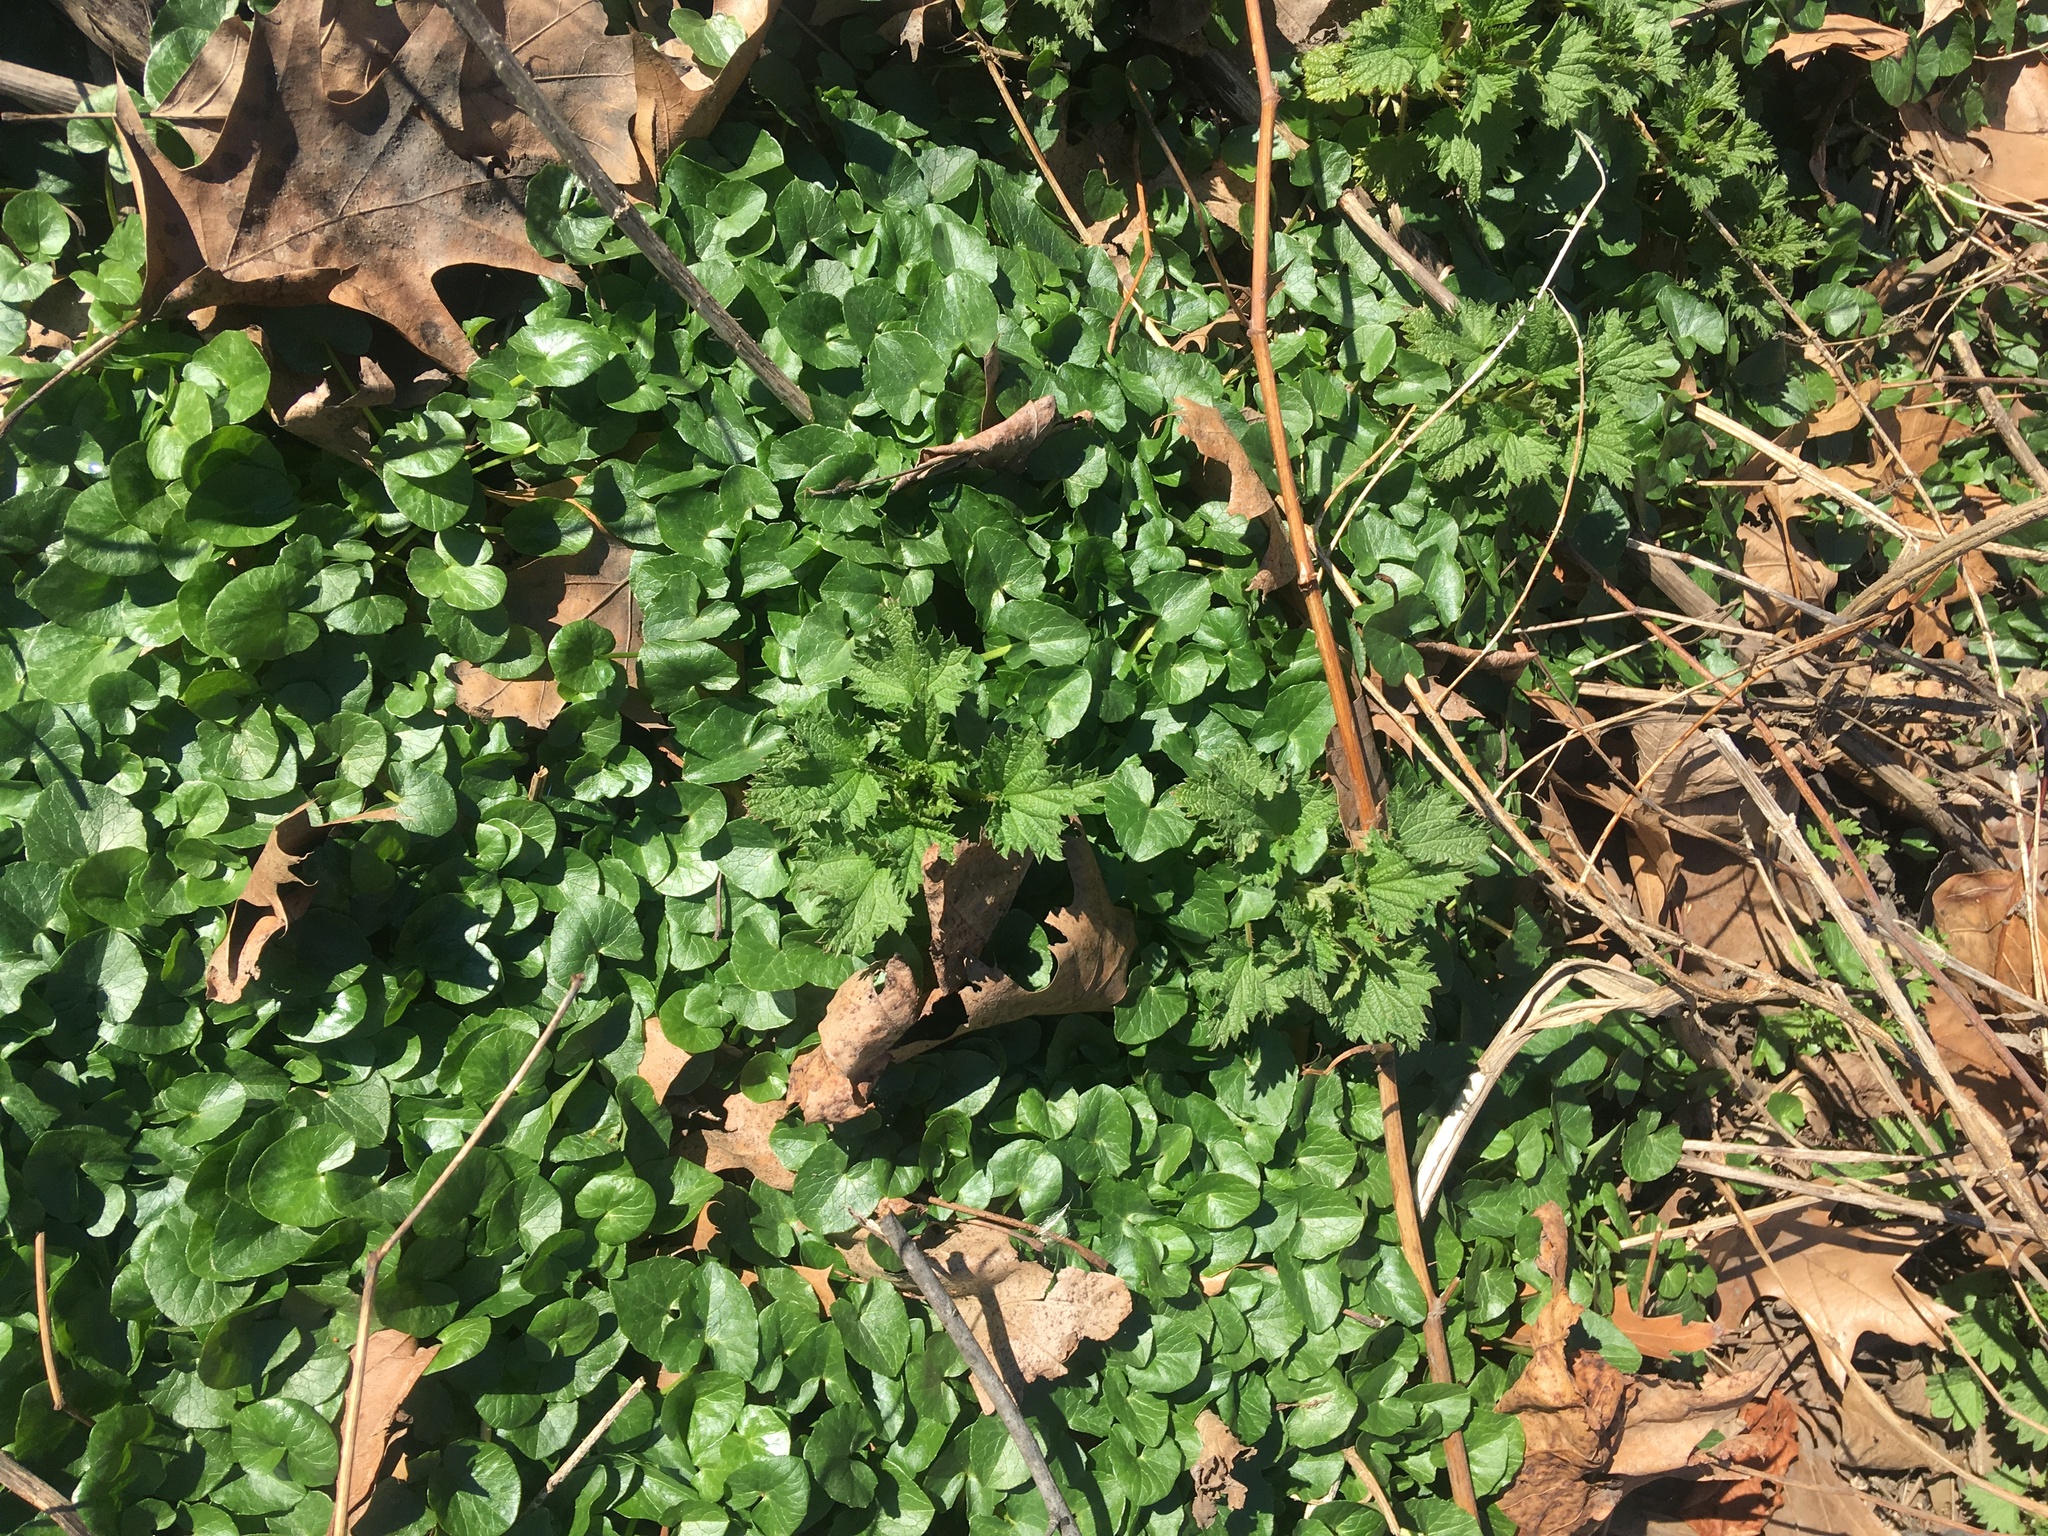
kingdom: Plantae
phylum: Tracheophyta
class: Magnoliopsida
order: Ranunculales
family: Ranunculaceae
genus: Ficaria
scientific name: Ficaria verna
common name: Lesser celandine
